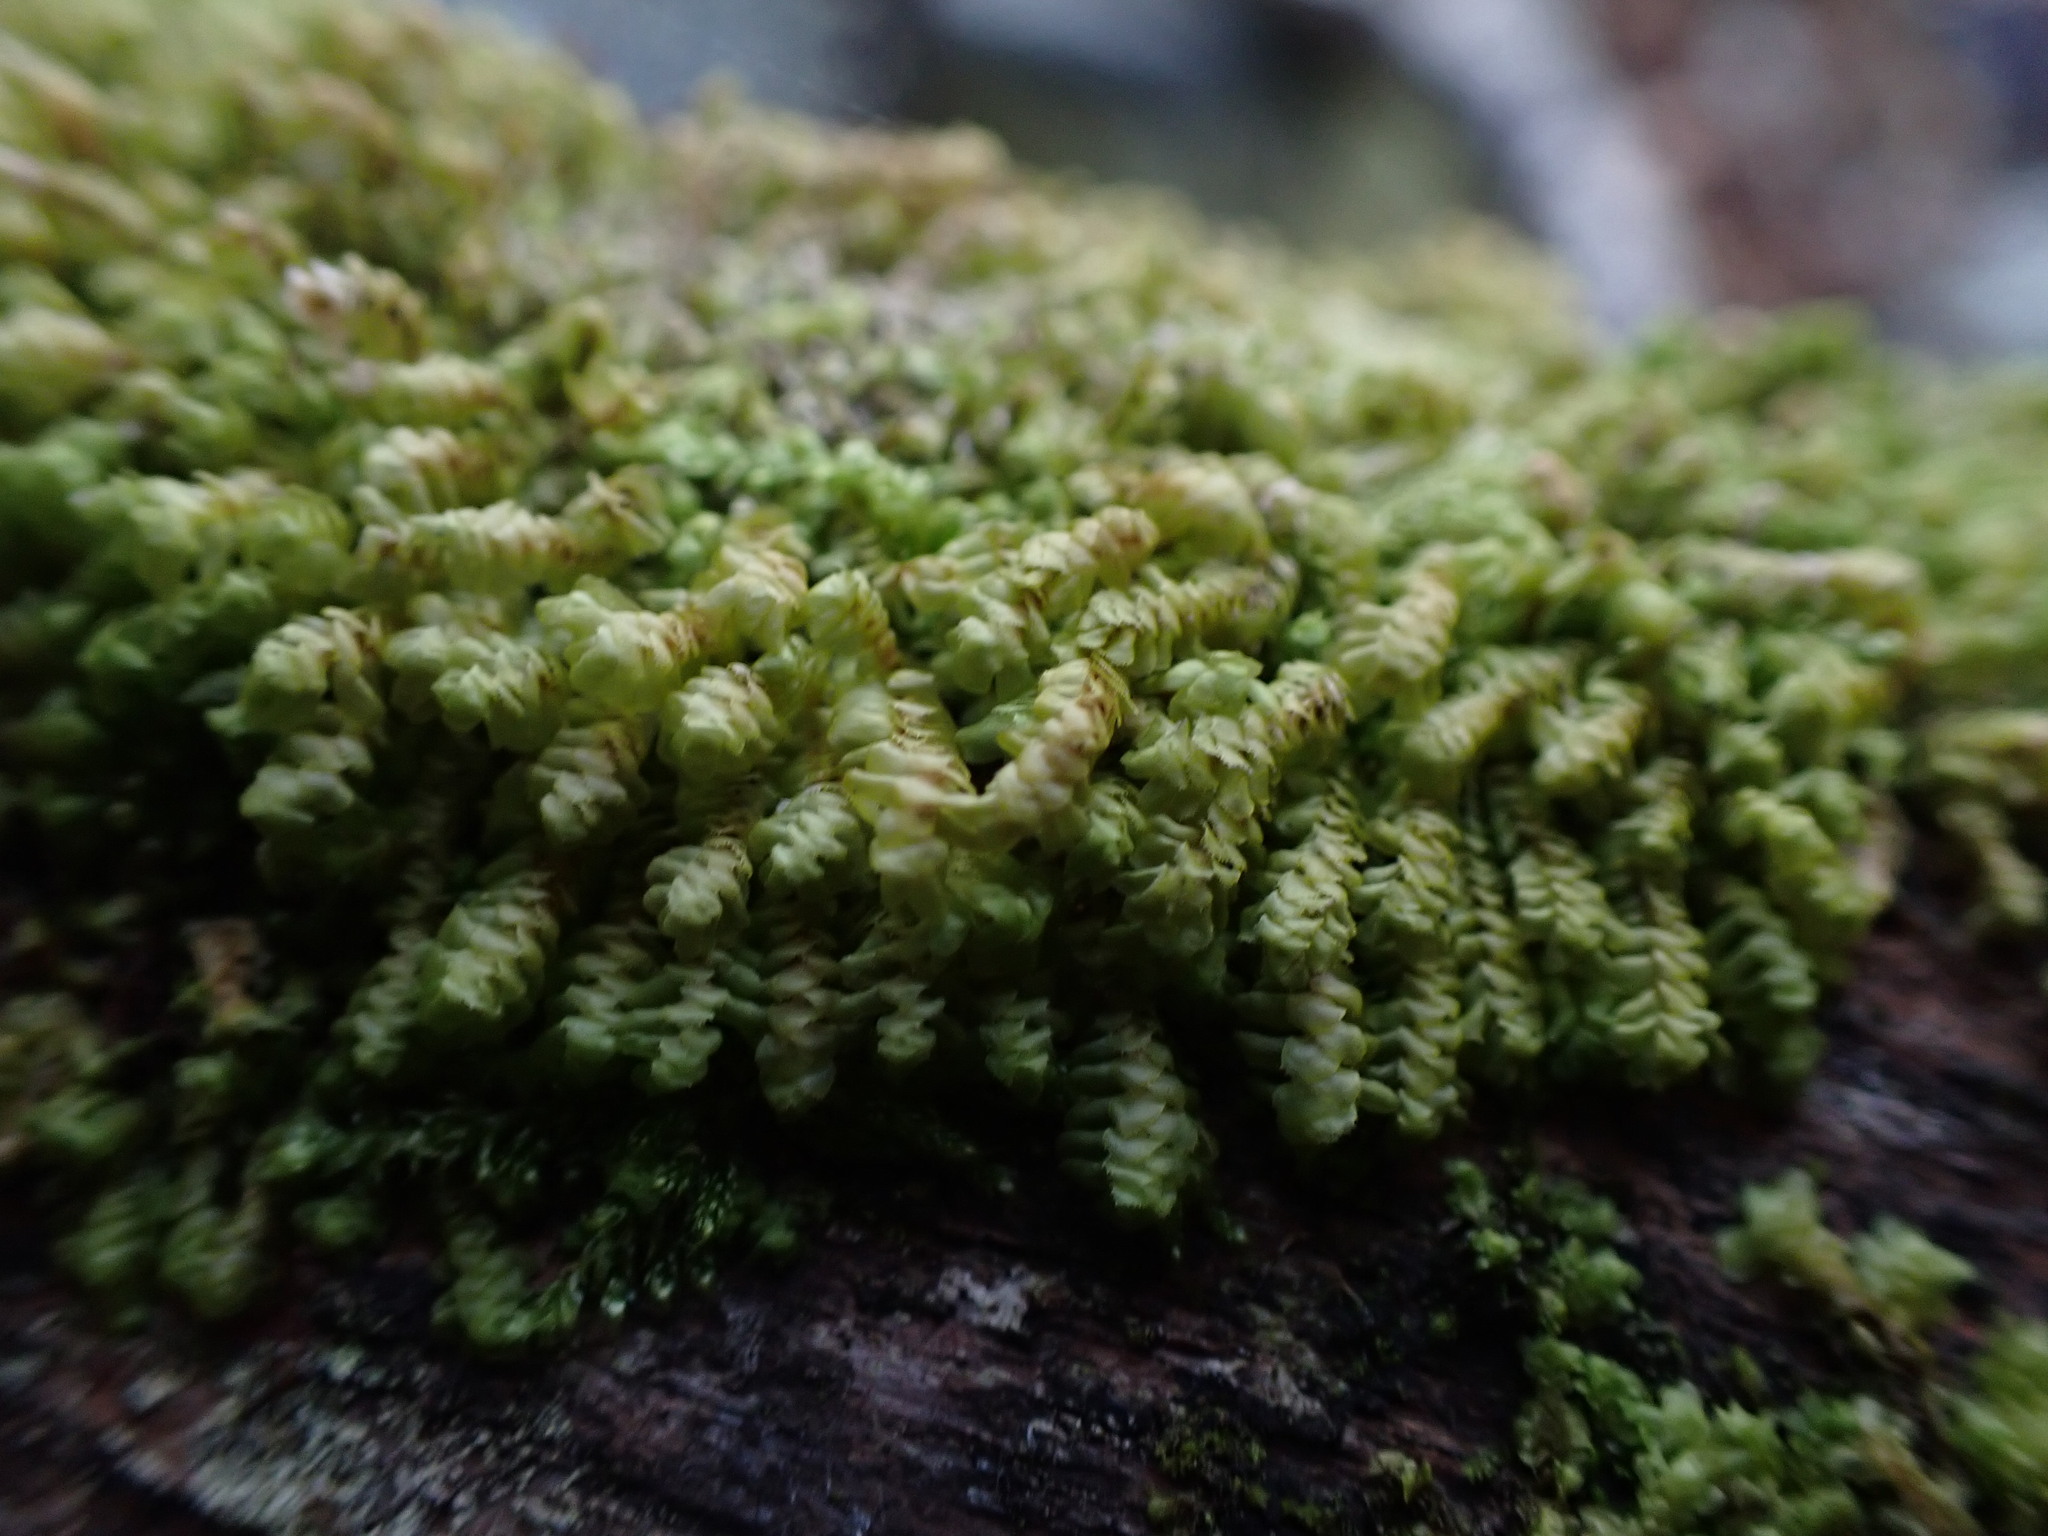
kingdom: Plantae
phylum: Marchantiophyta
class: Jungermanniopsida
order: Jungermanniales
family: Scapaniaceae
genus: Scapania
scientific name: Scapania bolanderi
